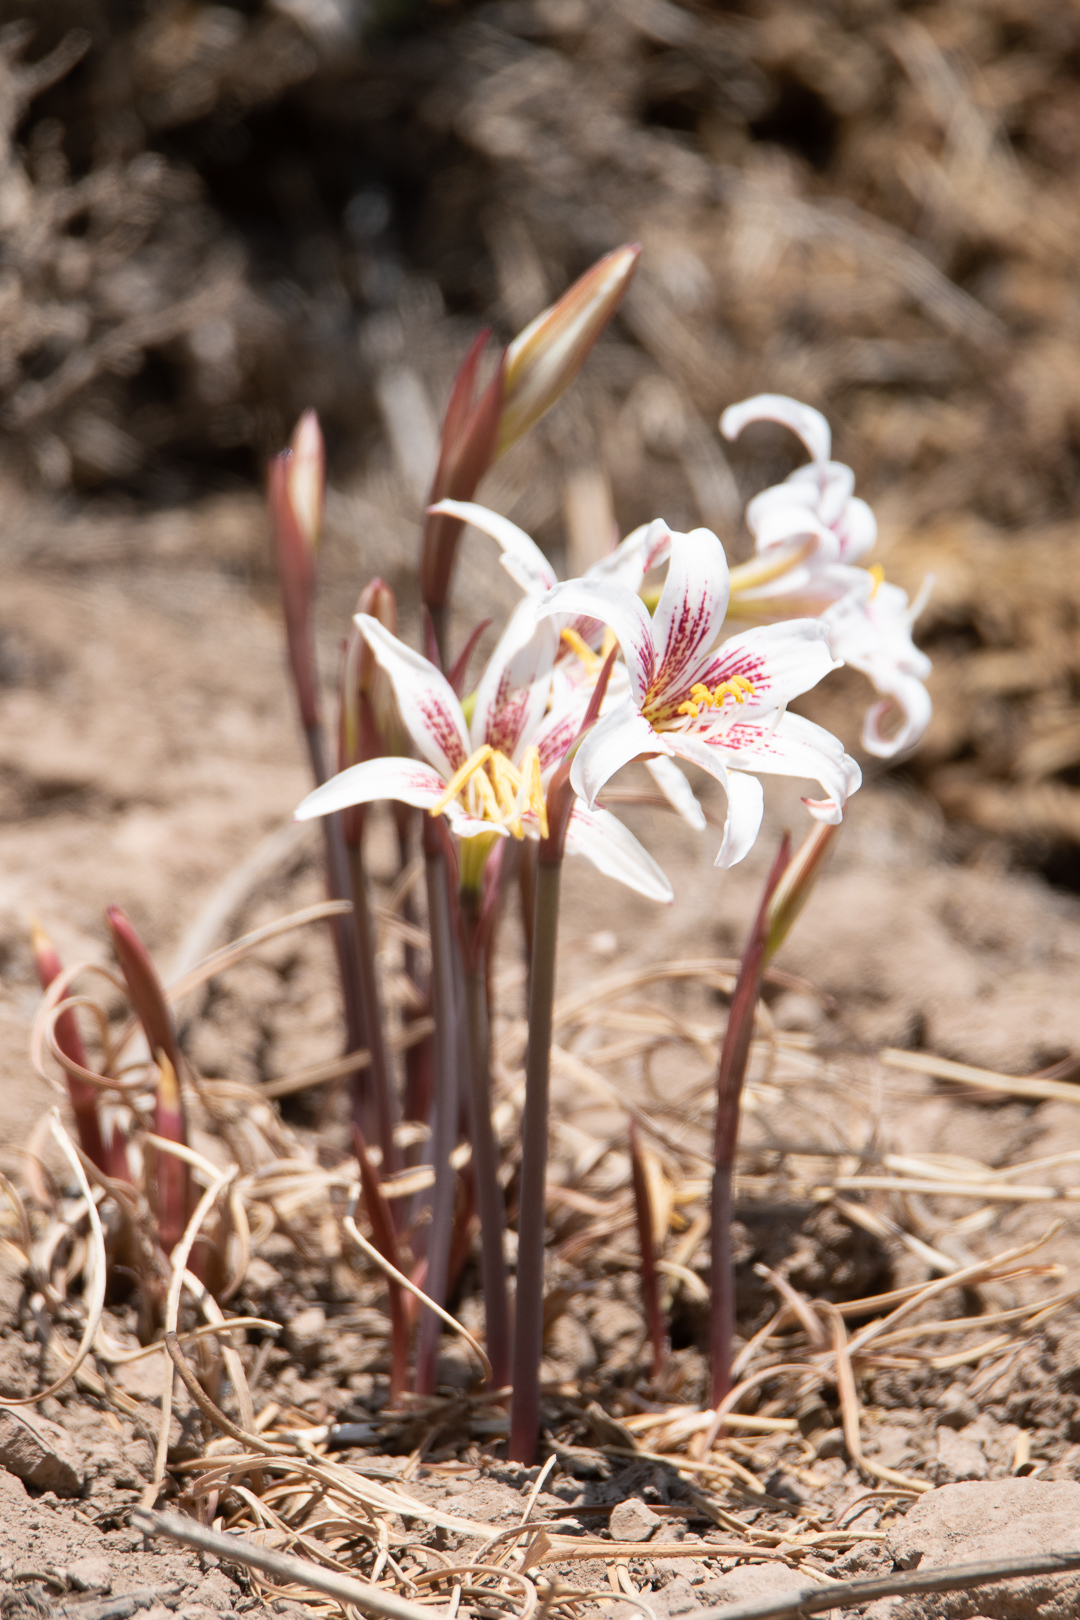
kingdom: Plantae
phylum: Tracheophyta
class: Liliopsida
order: Asparagales
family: Amaryllidaceae
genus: Rhodolirium
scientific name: Rhodolirium montanum
